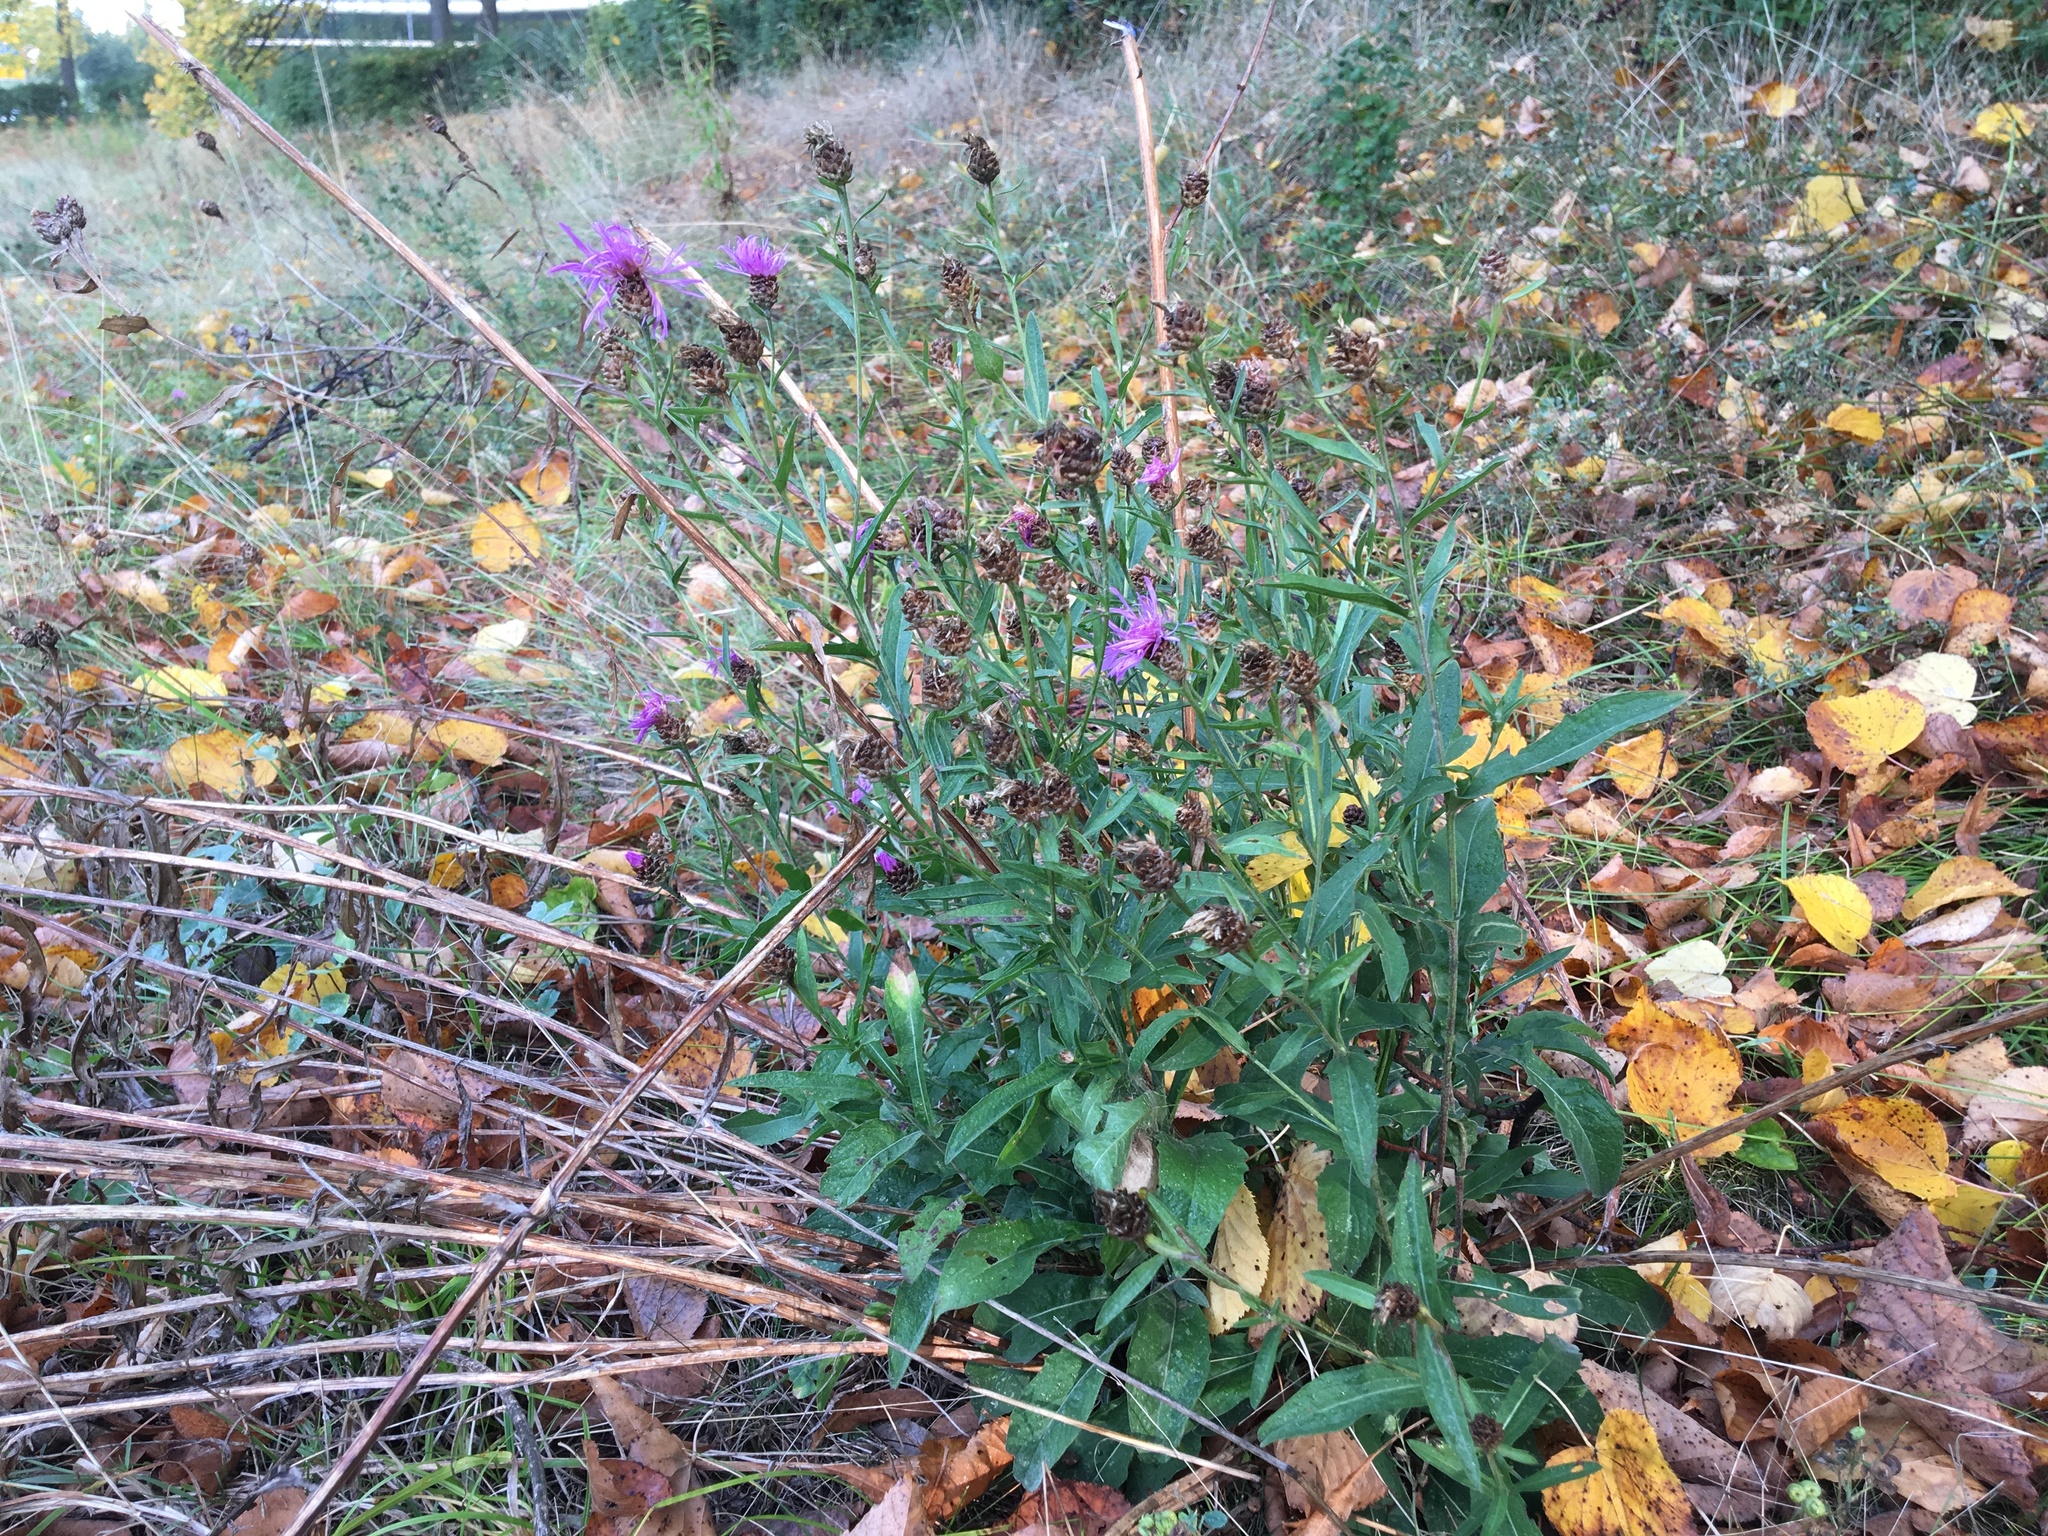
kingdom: Plantae
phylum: Tracheophyta
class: Magnoliopsida
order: Asterales
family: Asteraceae
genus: Centaurea
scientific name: Centaurea jacea
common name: Brown knapweed
